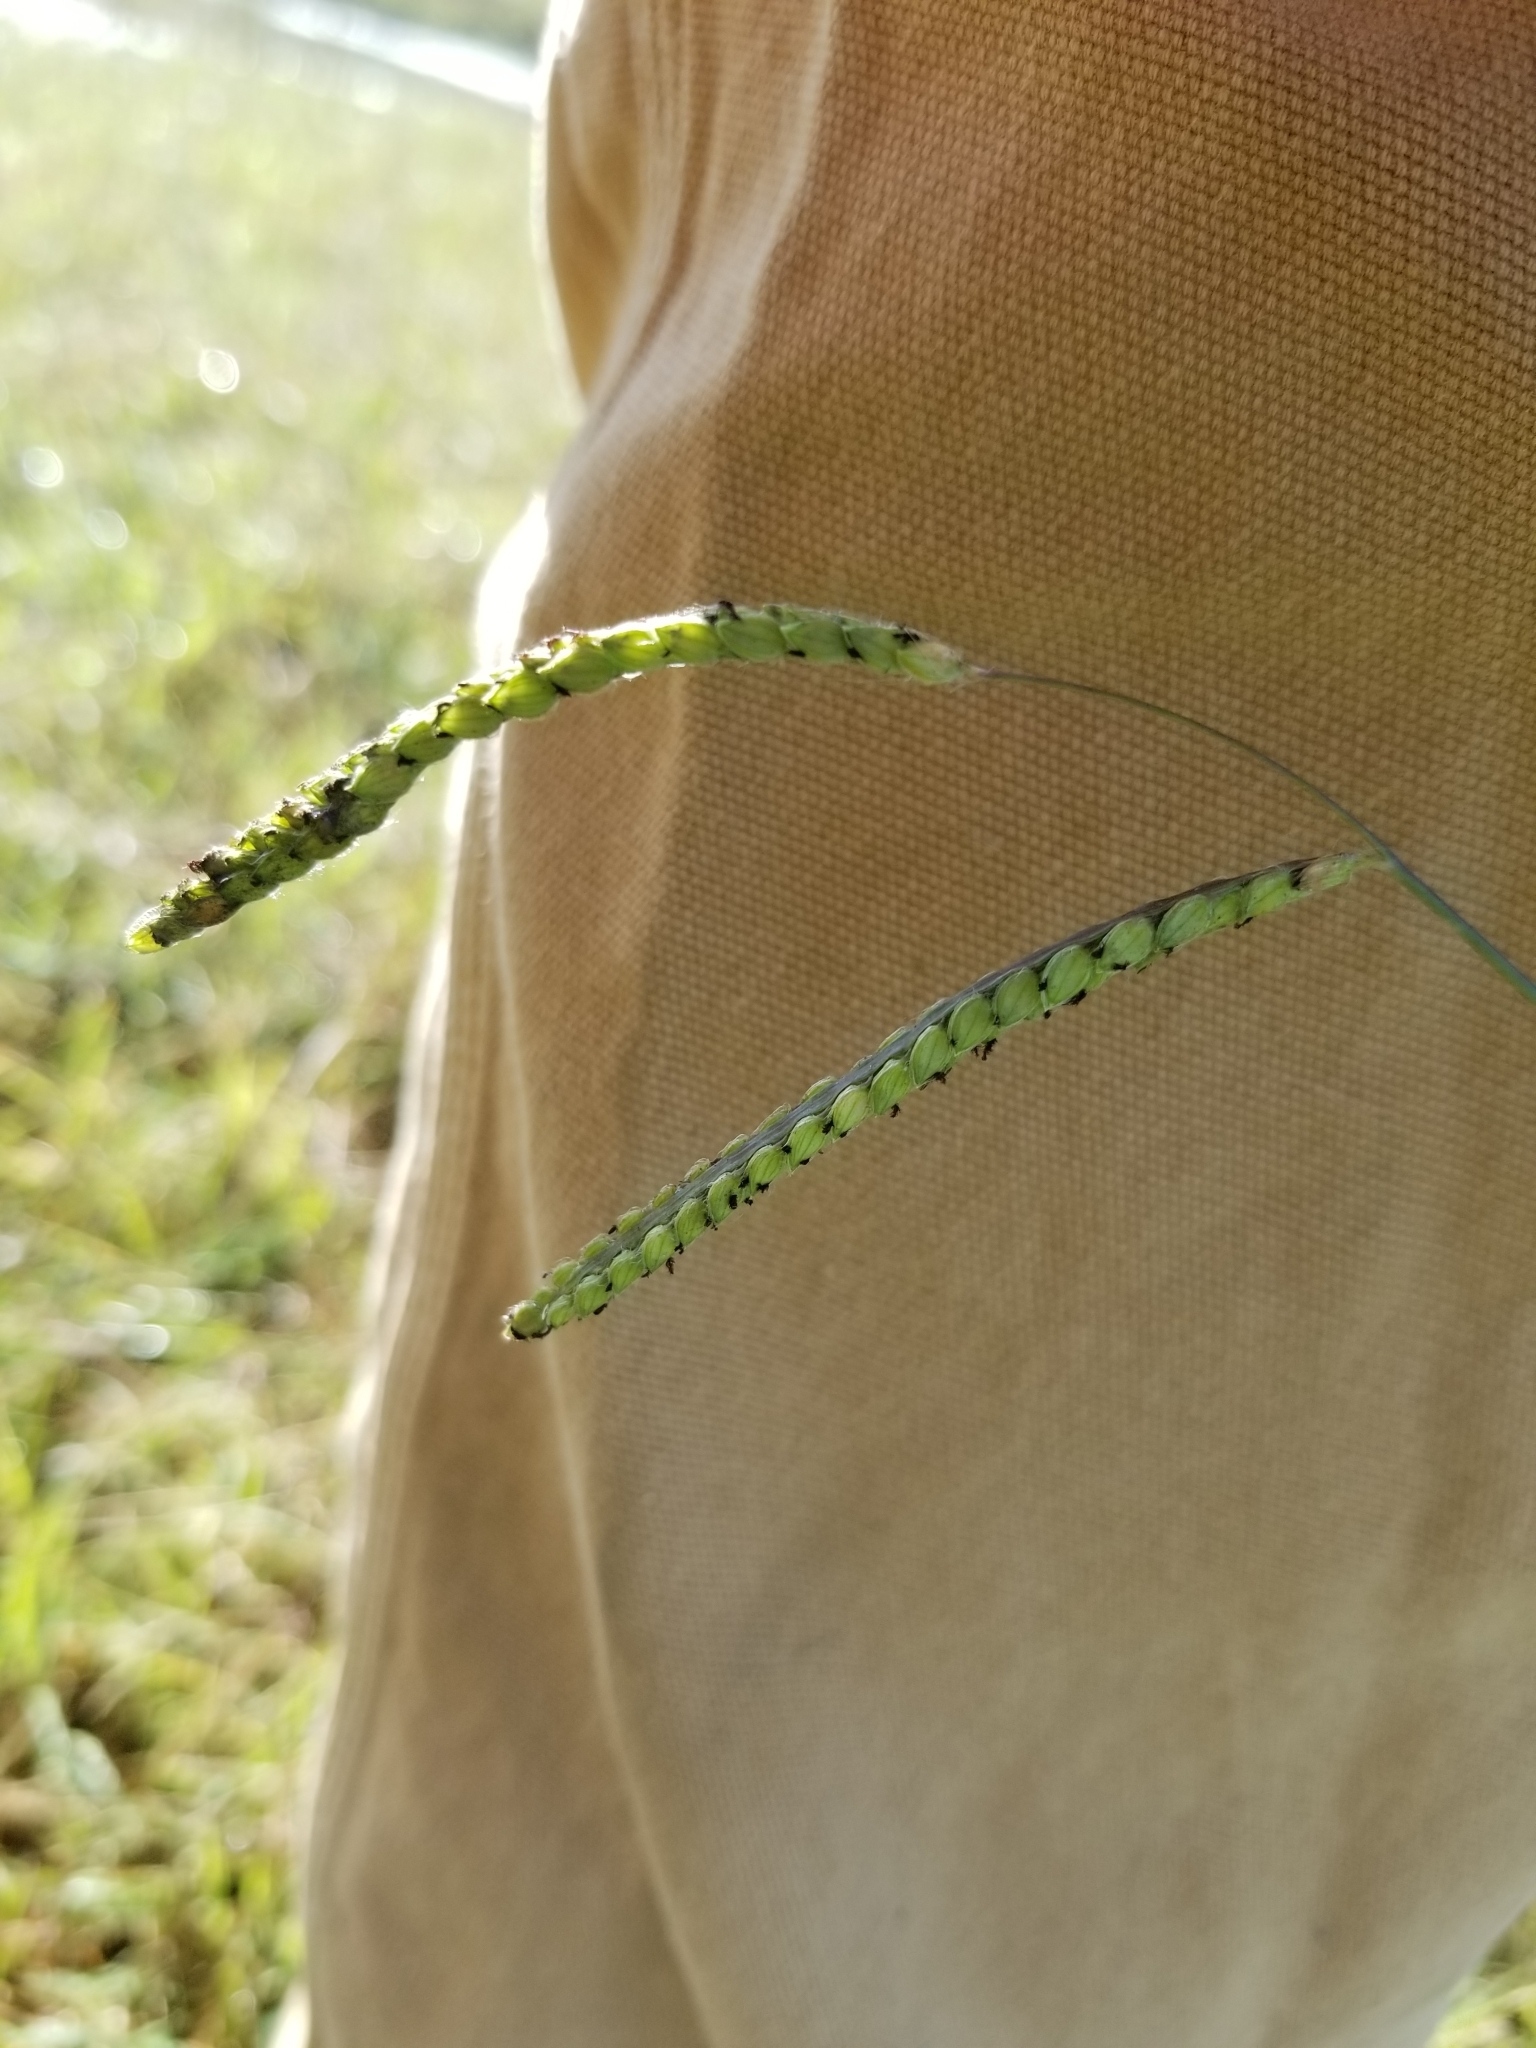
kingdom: Plantae
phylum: Tracheophyta
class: Liliopsida
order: Poales
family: Poaceae
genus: Paspalum
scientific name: Paspalum dilatatum
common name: Dallisgrass
